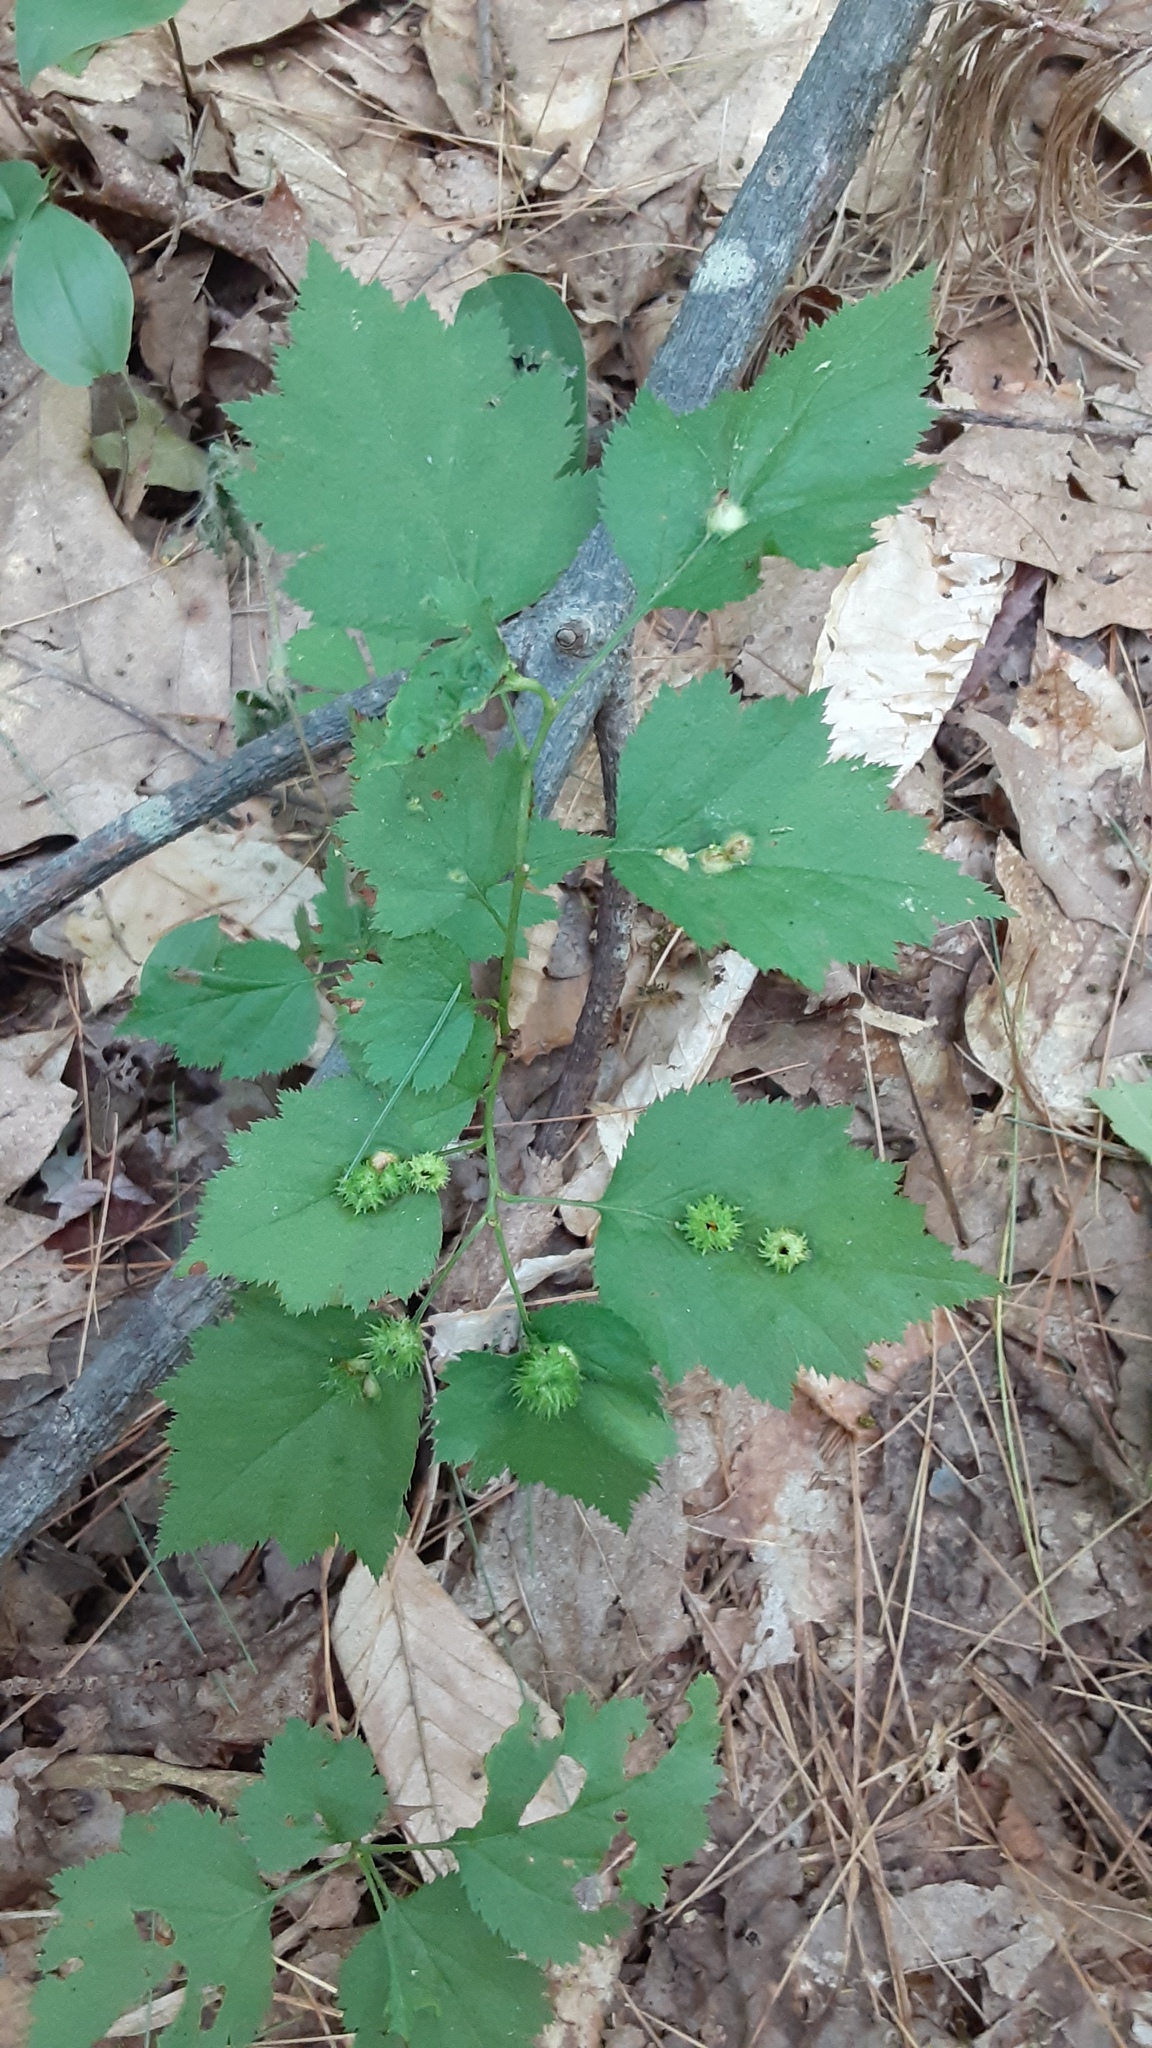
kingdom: Animalia
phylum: Arthropoda
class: Insecta
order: Diptera
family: Cecidomyiidae
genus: Blaesodiplosis
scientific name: Blaesodiplosis crataegibedeguar
